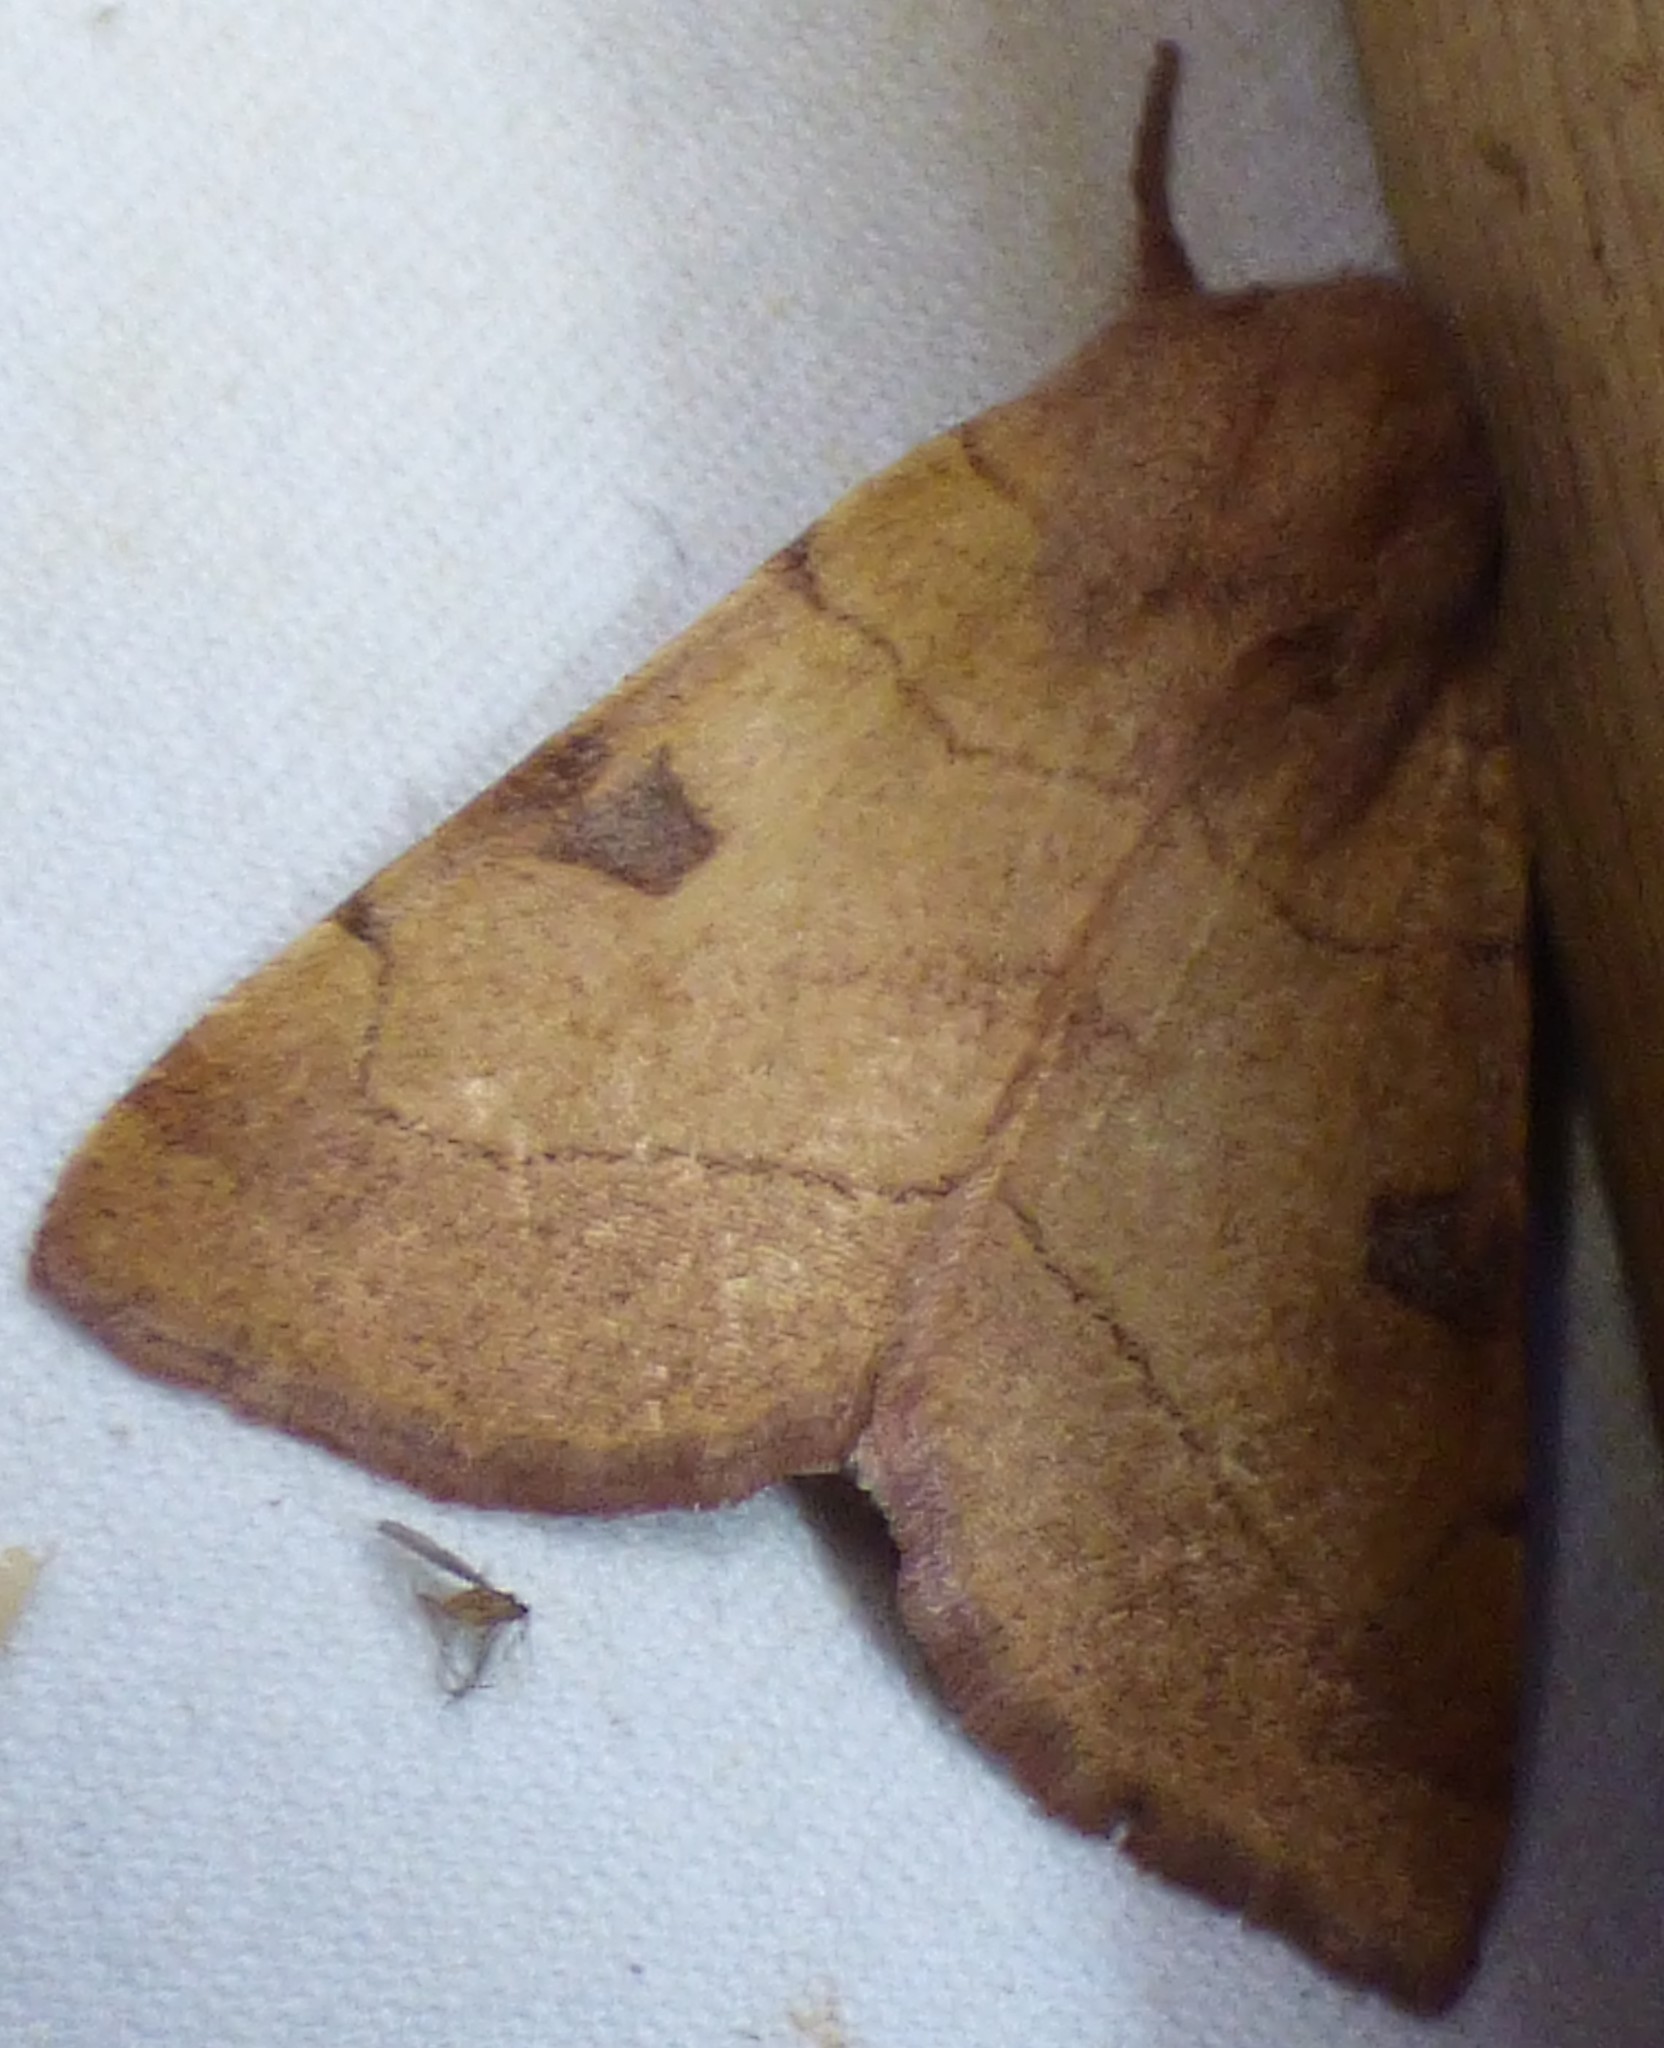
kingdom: Animalia
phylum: Arthropoda
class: Insecta
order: Lepidoptera
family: Noctuidae
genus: Choephora
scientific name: Choephora fungorum
